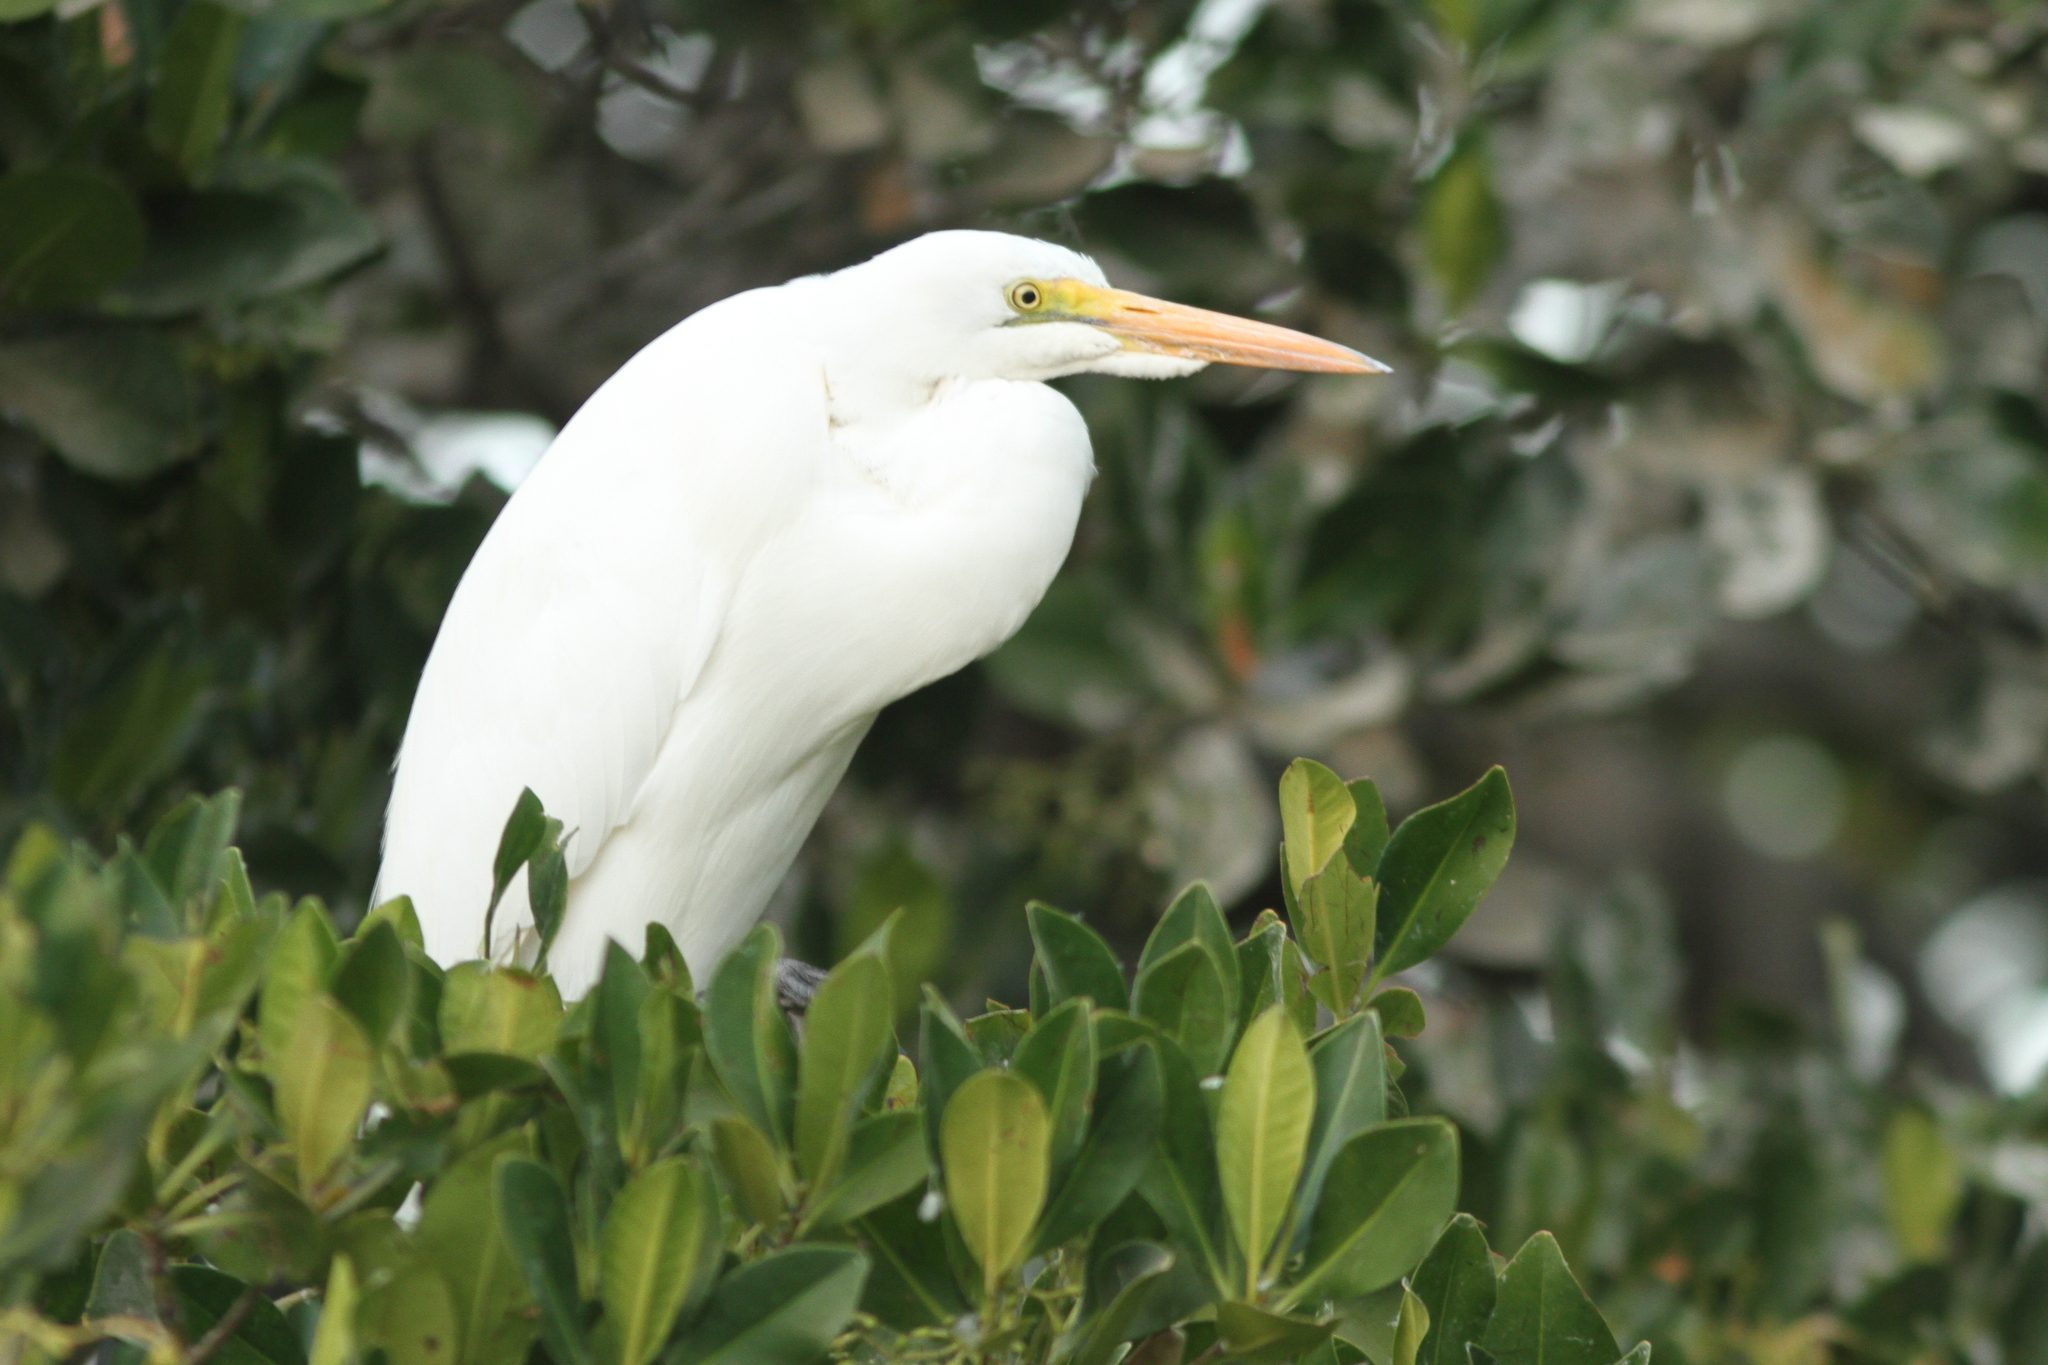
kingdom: Animalia
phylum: Chordata
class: Aves
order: Pelecaniformes
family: Ardeidae
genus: Ardea
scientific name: Ardea alba
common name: Great egret
